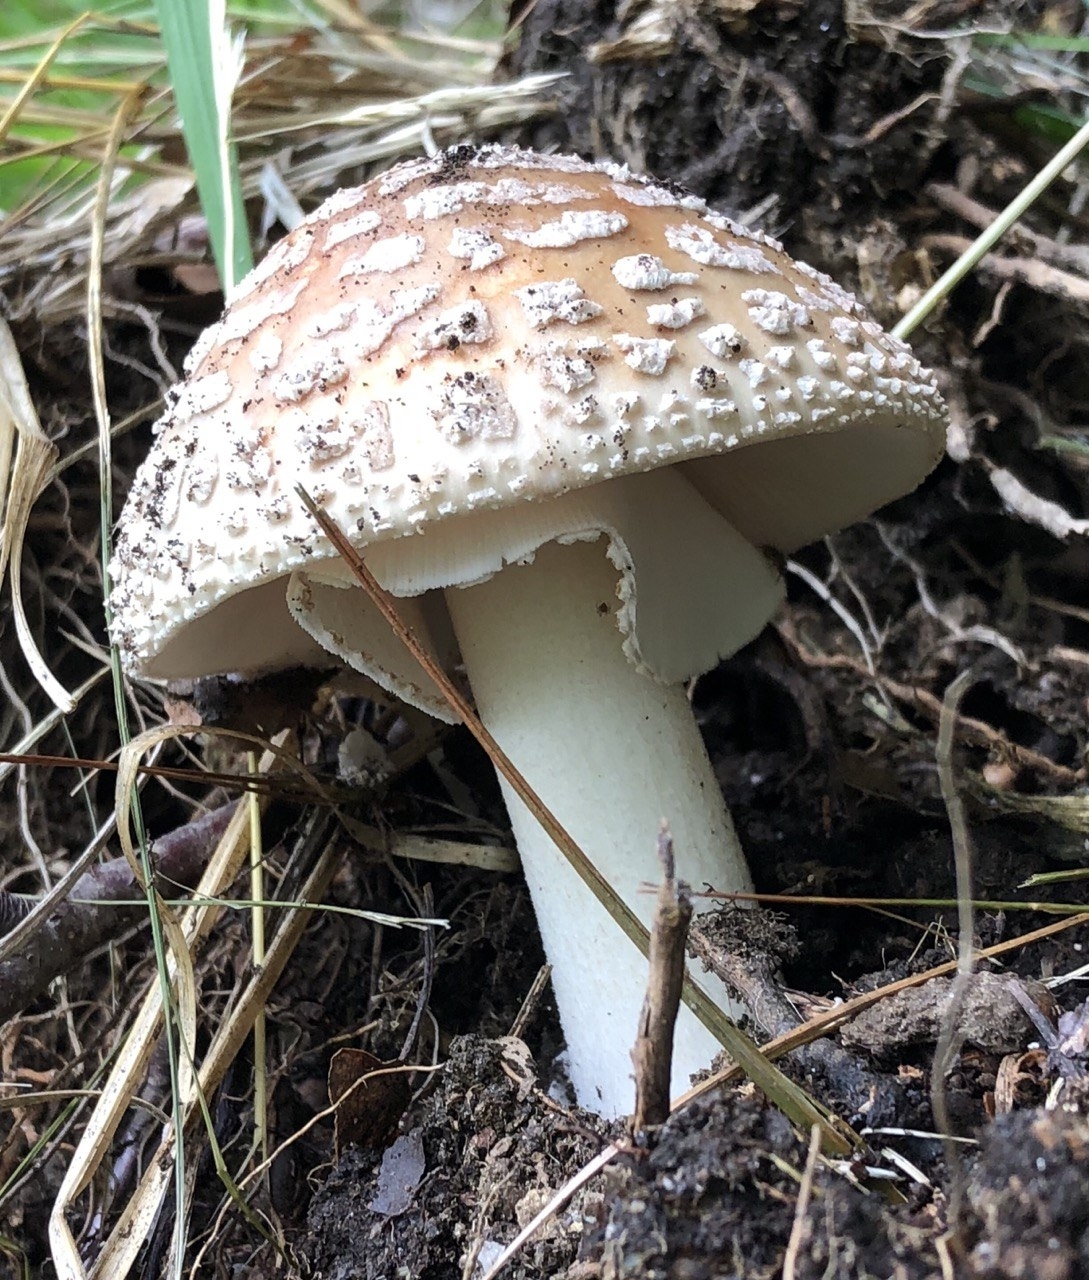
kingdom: Fungi
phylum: Basidiomycota
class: Agaricomycetes
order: Agaricales
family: Amanitaceae
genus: Amanita
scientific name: Amanita rubescens
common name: Blusher
